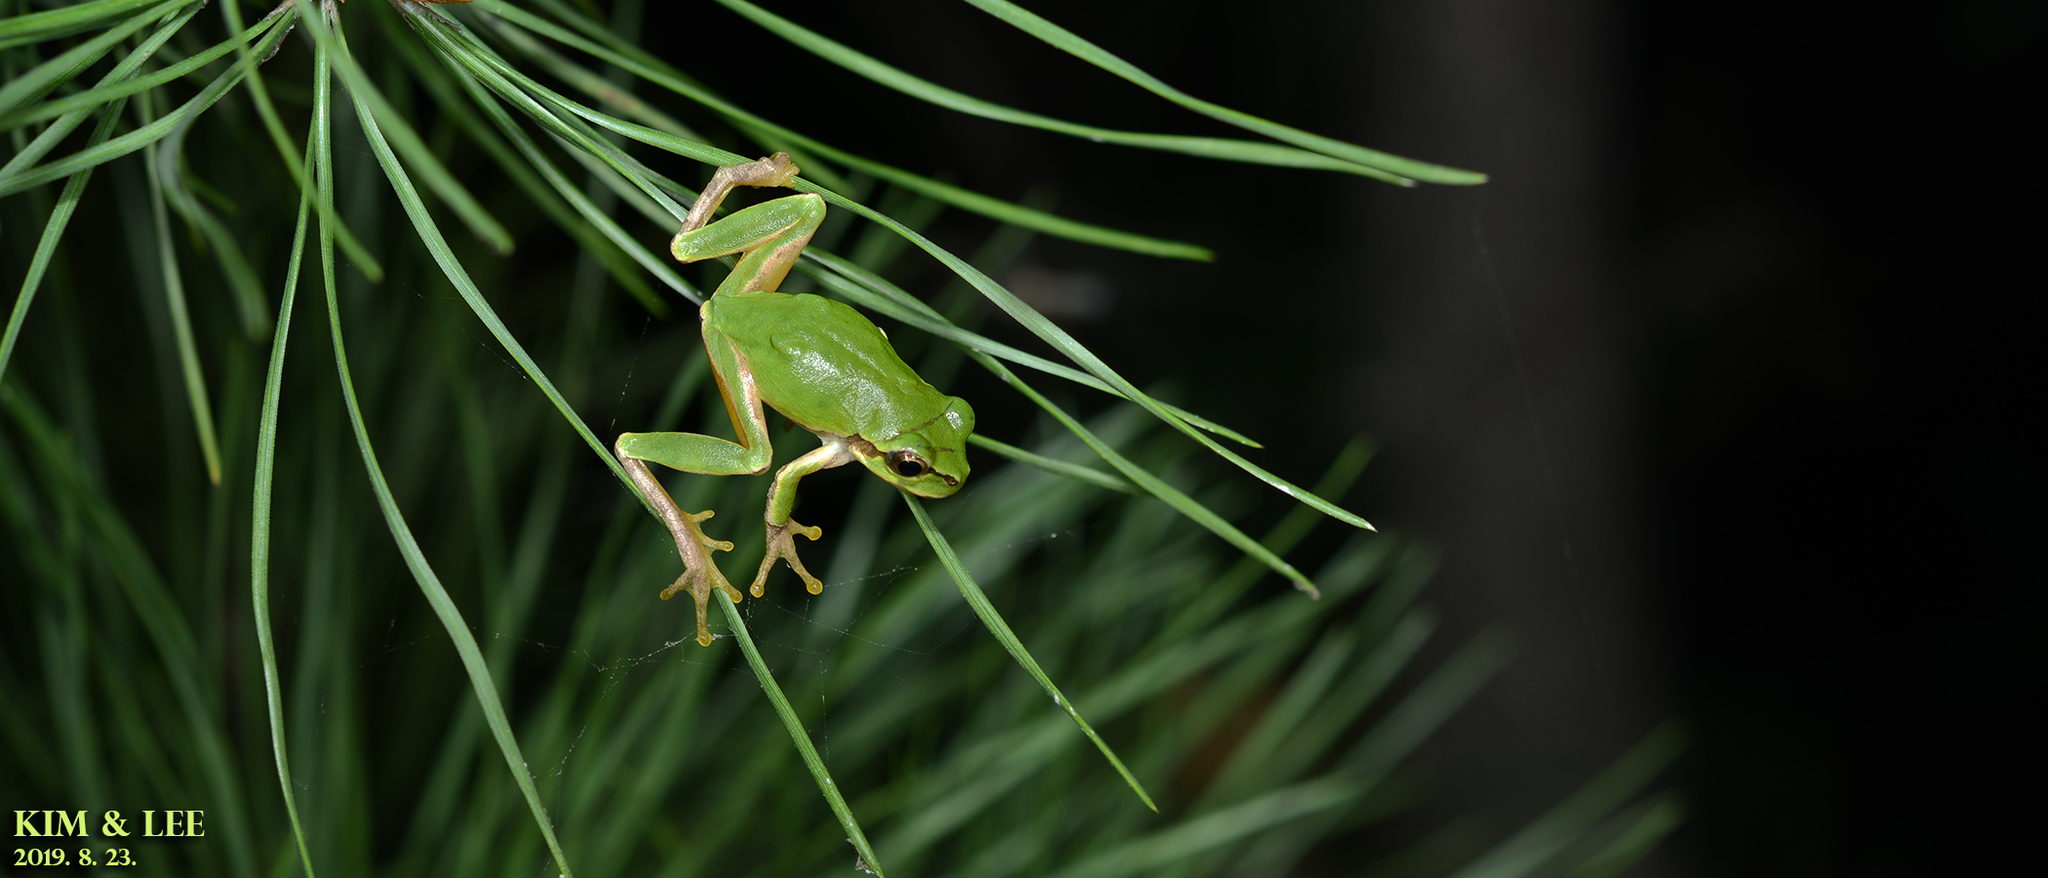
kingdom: Animalia
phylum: Chordata
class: Amphibia
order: Anura
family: Hylidae
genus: Dryophytes
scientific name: Dryophytes japonicus
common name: Japanese treefrog
